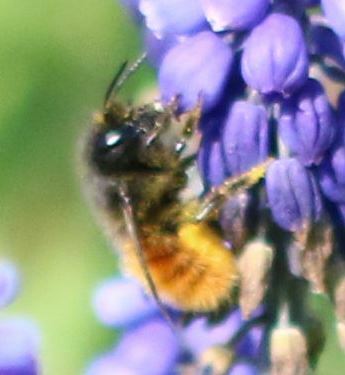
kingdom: Animalia
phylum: Arthropoda
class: Insecta
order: Hymenoptera
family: Megachilidae
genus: Osmia
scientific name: Osmia cornuta
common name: Mason bee
